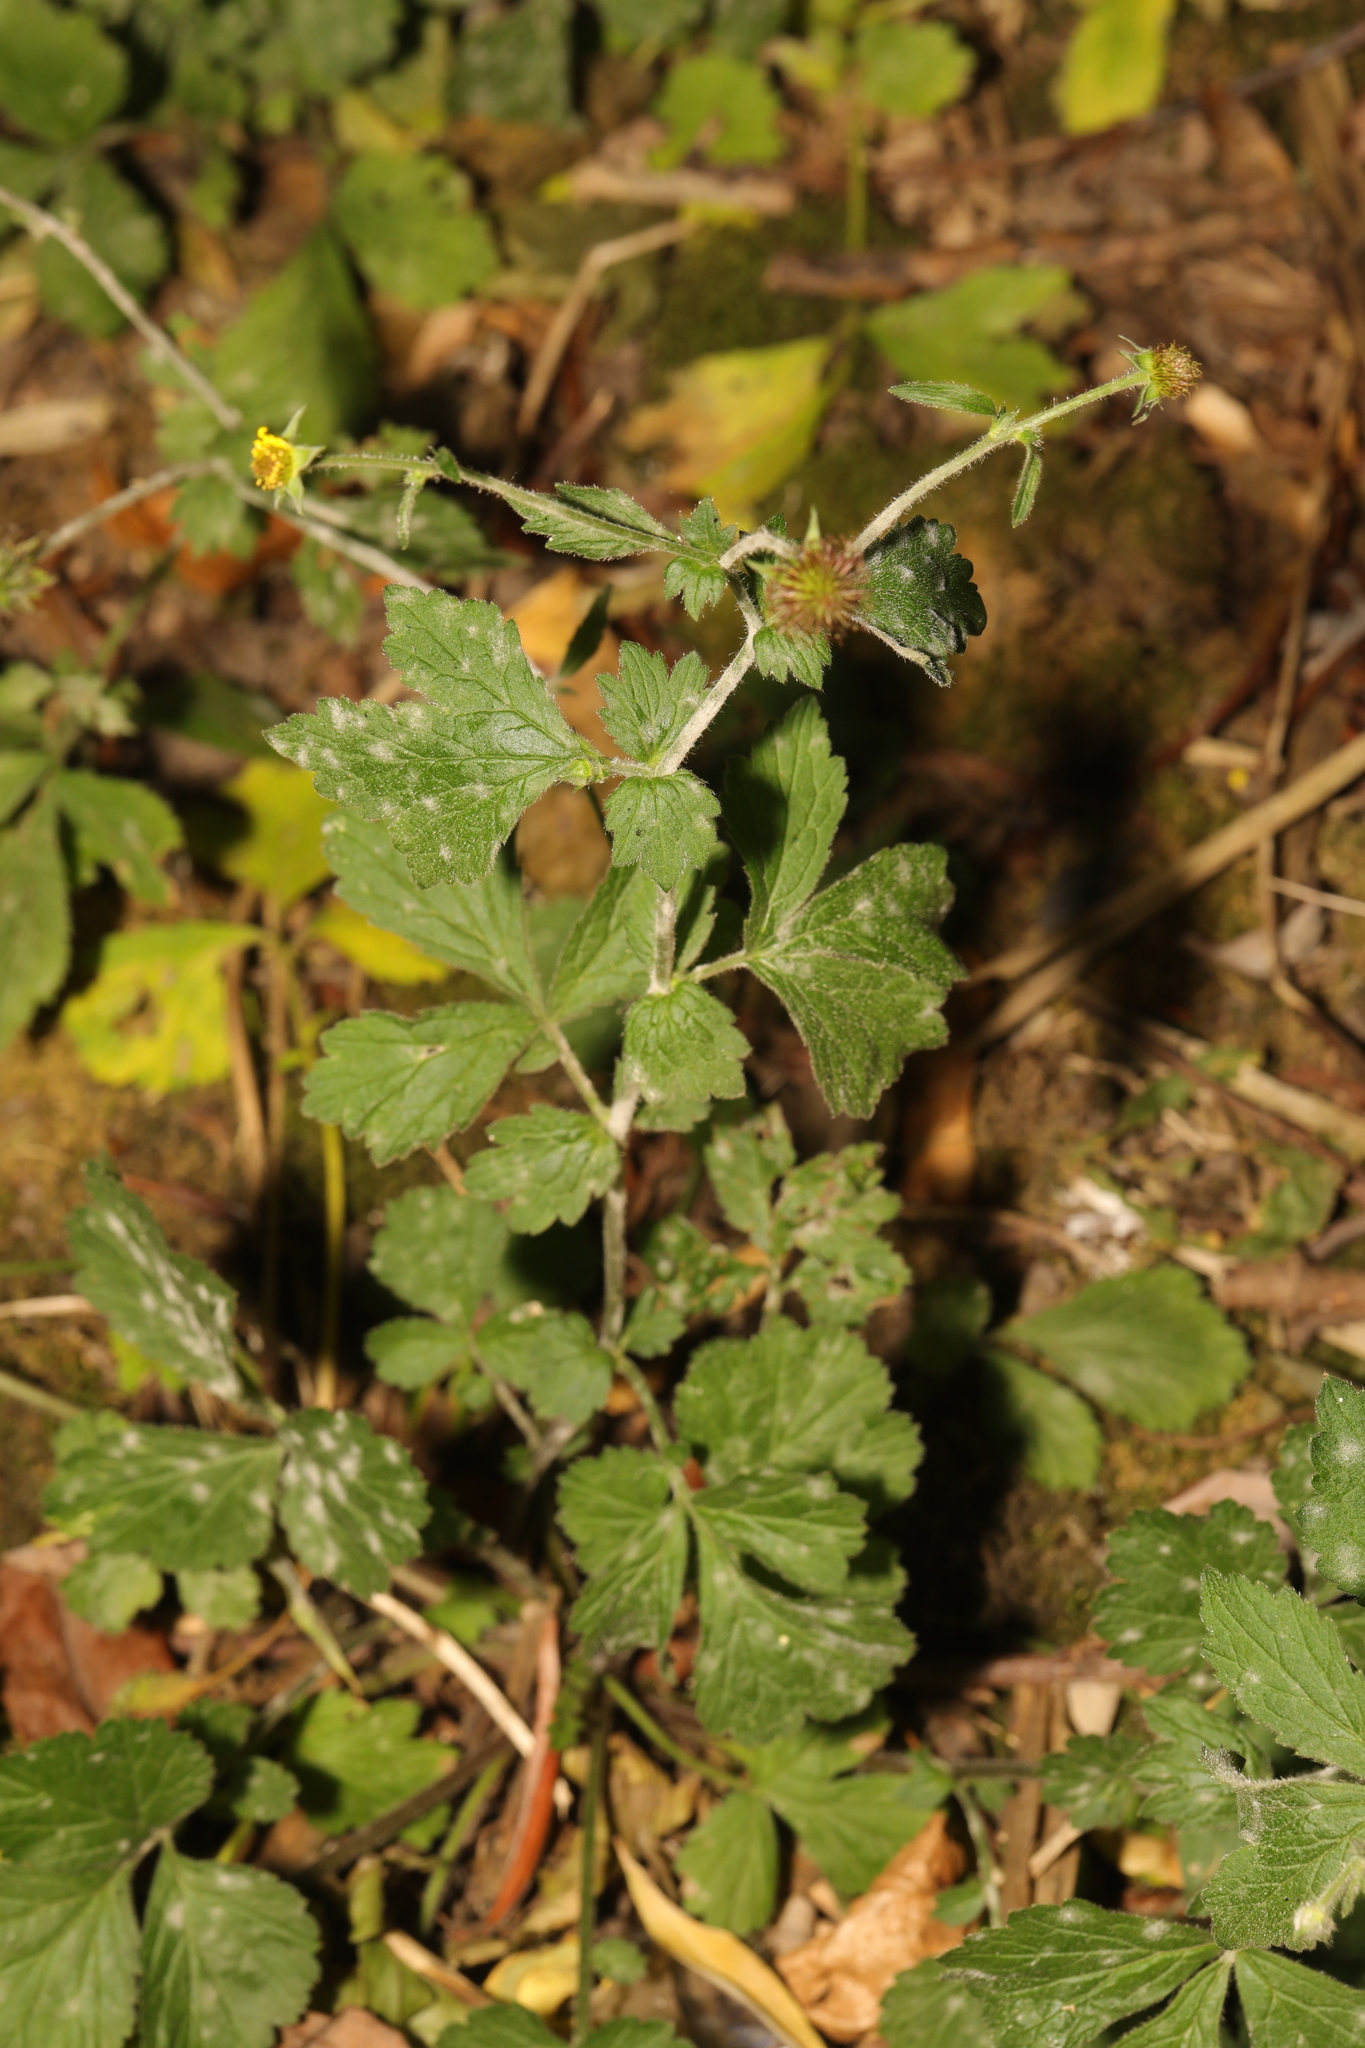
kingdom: Fungi
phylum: Ascomycota
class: Leotiomycetes
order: Helotiales
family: Erysiphaceae
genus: Podosphaera
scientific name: Podosphaera aphanis
